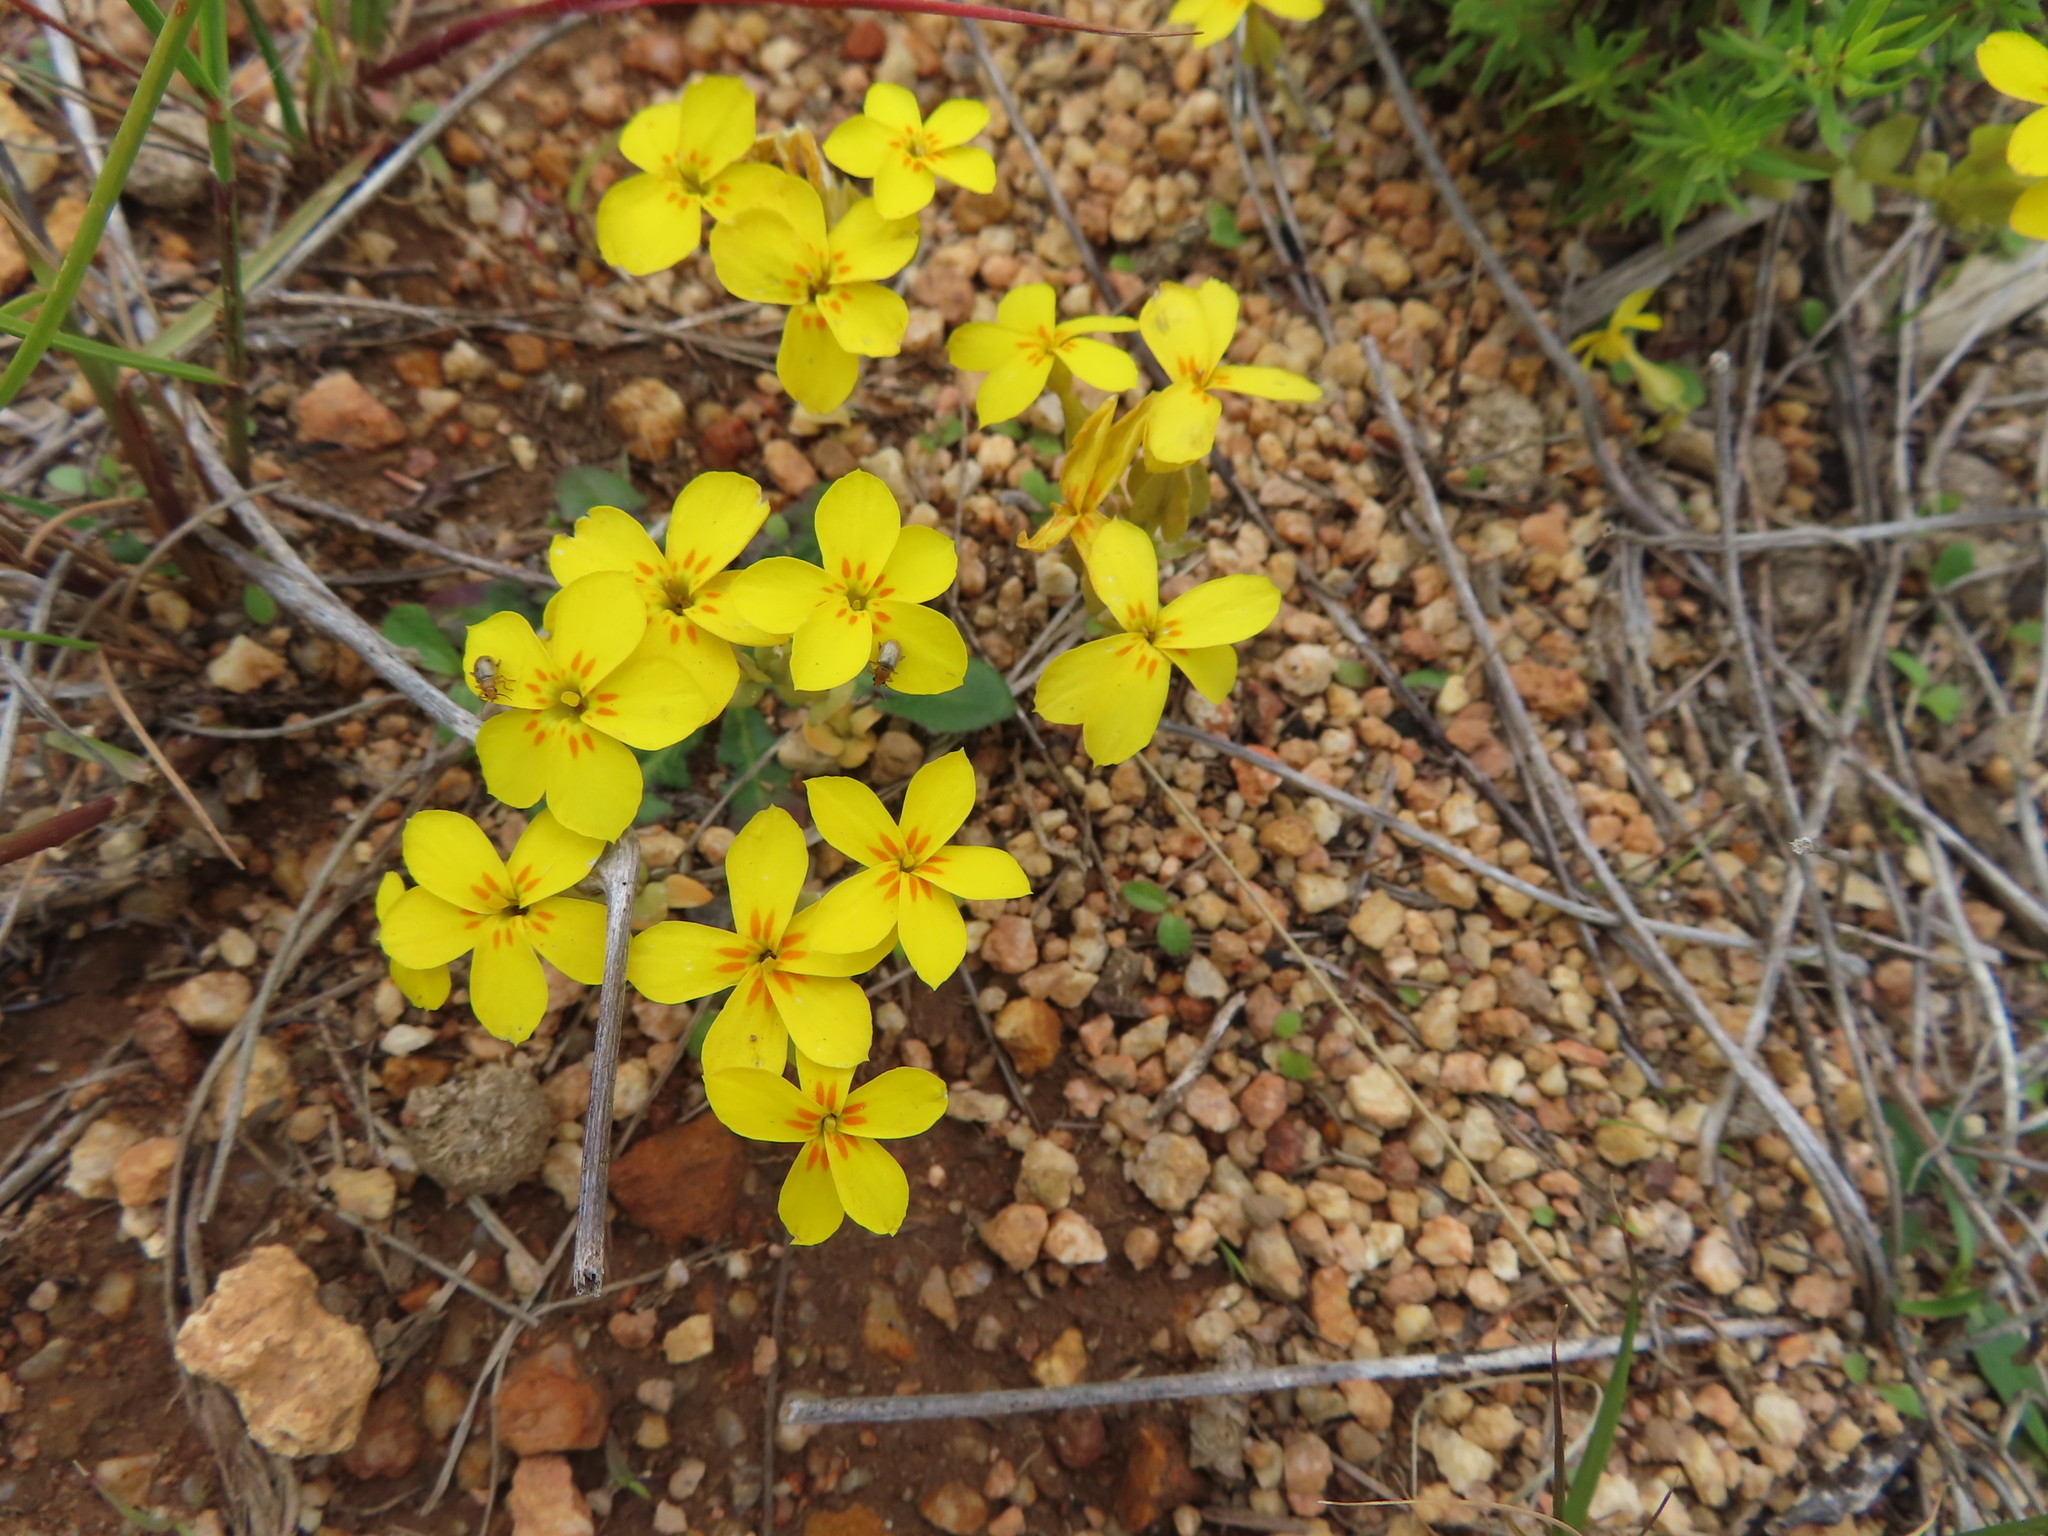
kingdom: Plantae
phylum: Tracheophyta
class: Magnoliopsida
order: Gentianales
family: Gentianaceae
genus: Sebaea
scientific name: Sebaea exacoides
